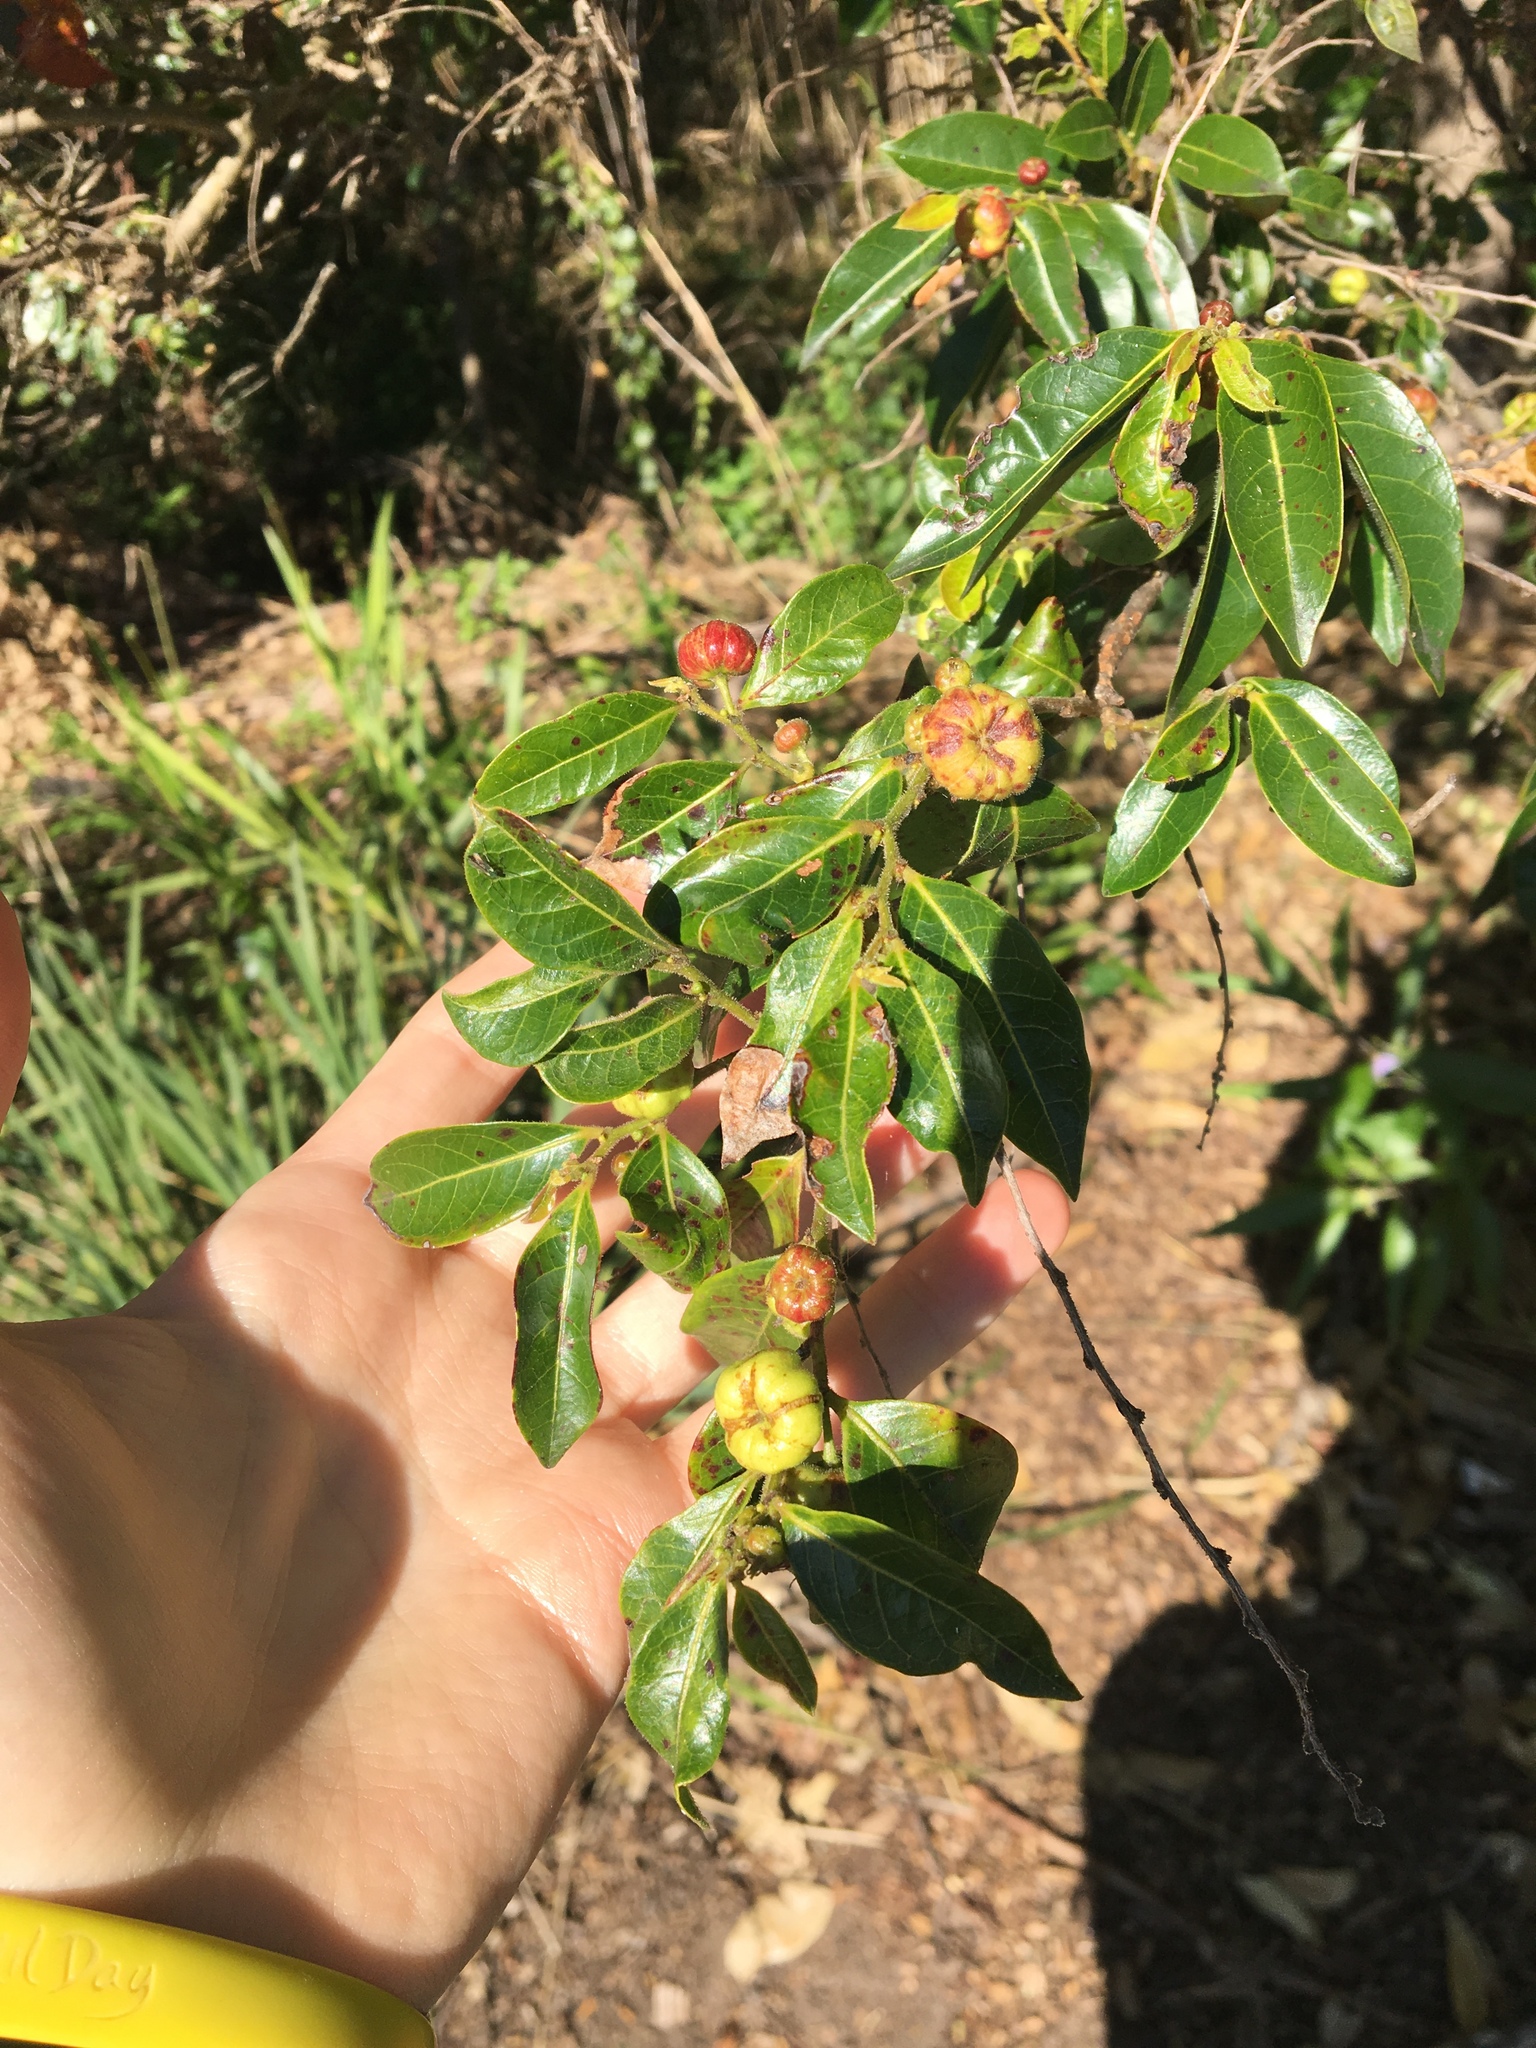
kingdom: Plantae
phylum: Tracheophyta
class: Magnoliopsida
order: Malpighiales
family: Phyllanthaceae
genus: Glochidion
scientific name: Glochidion ferdinandi
